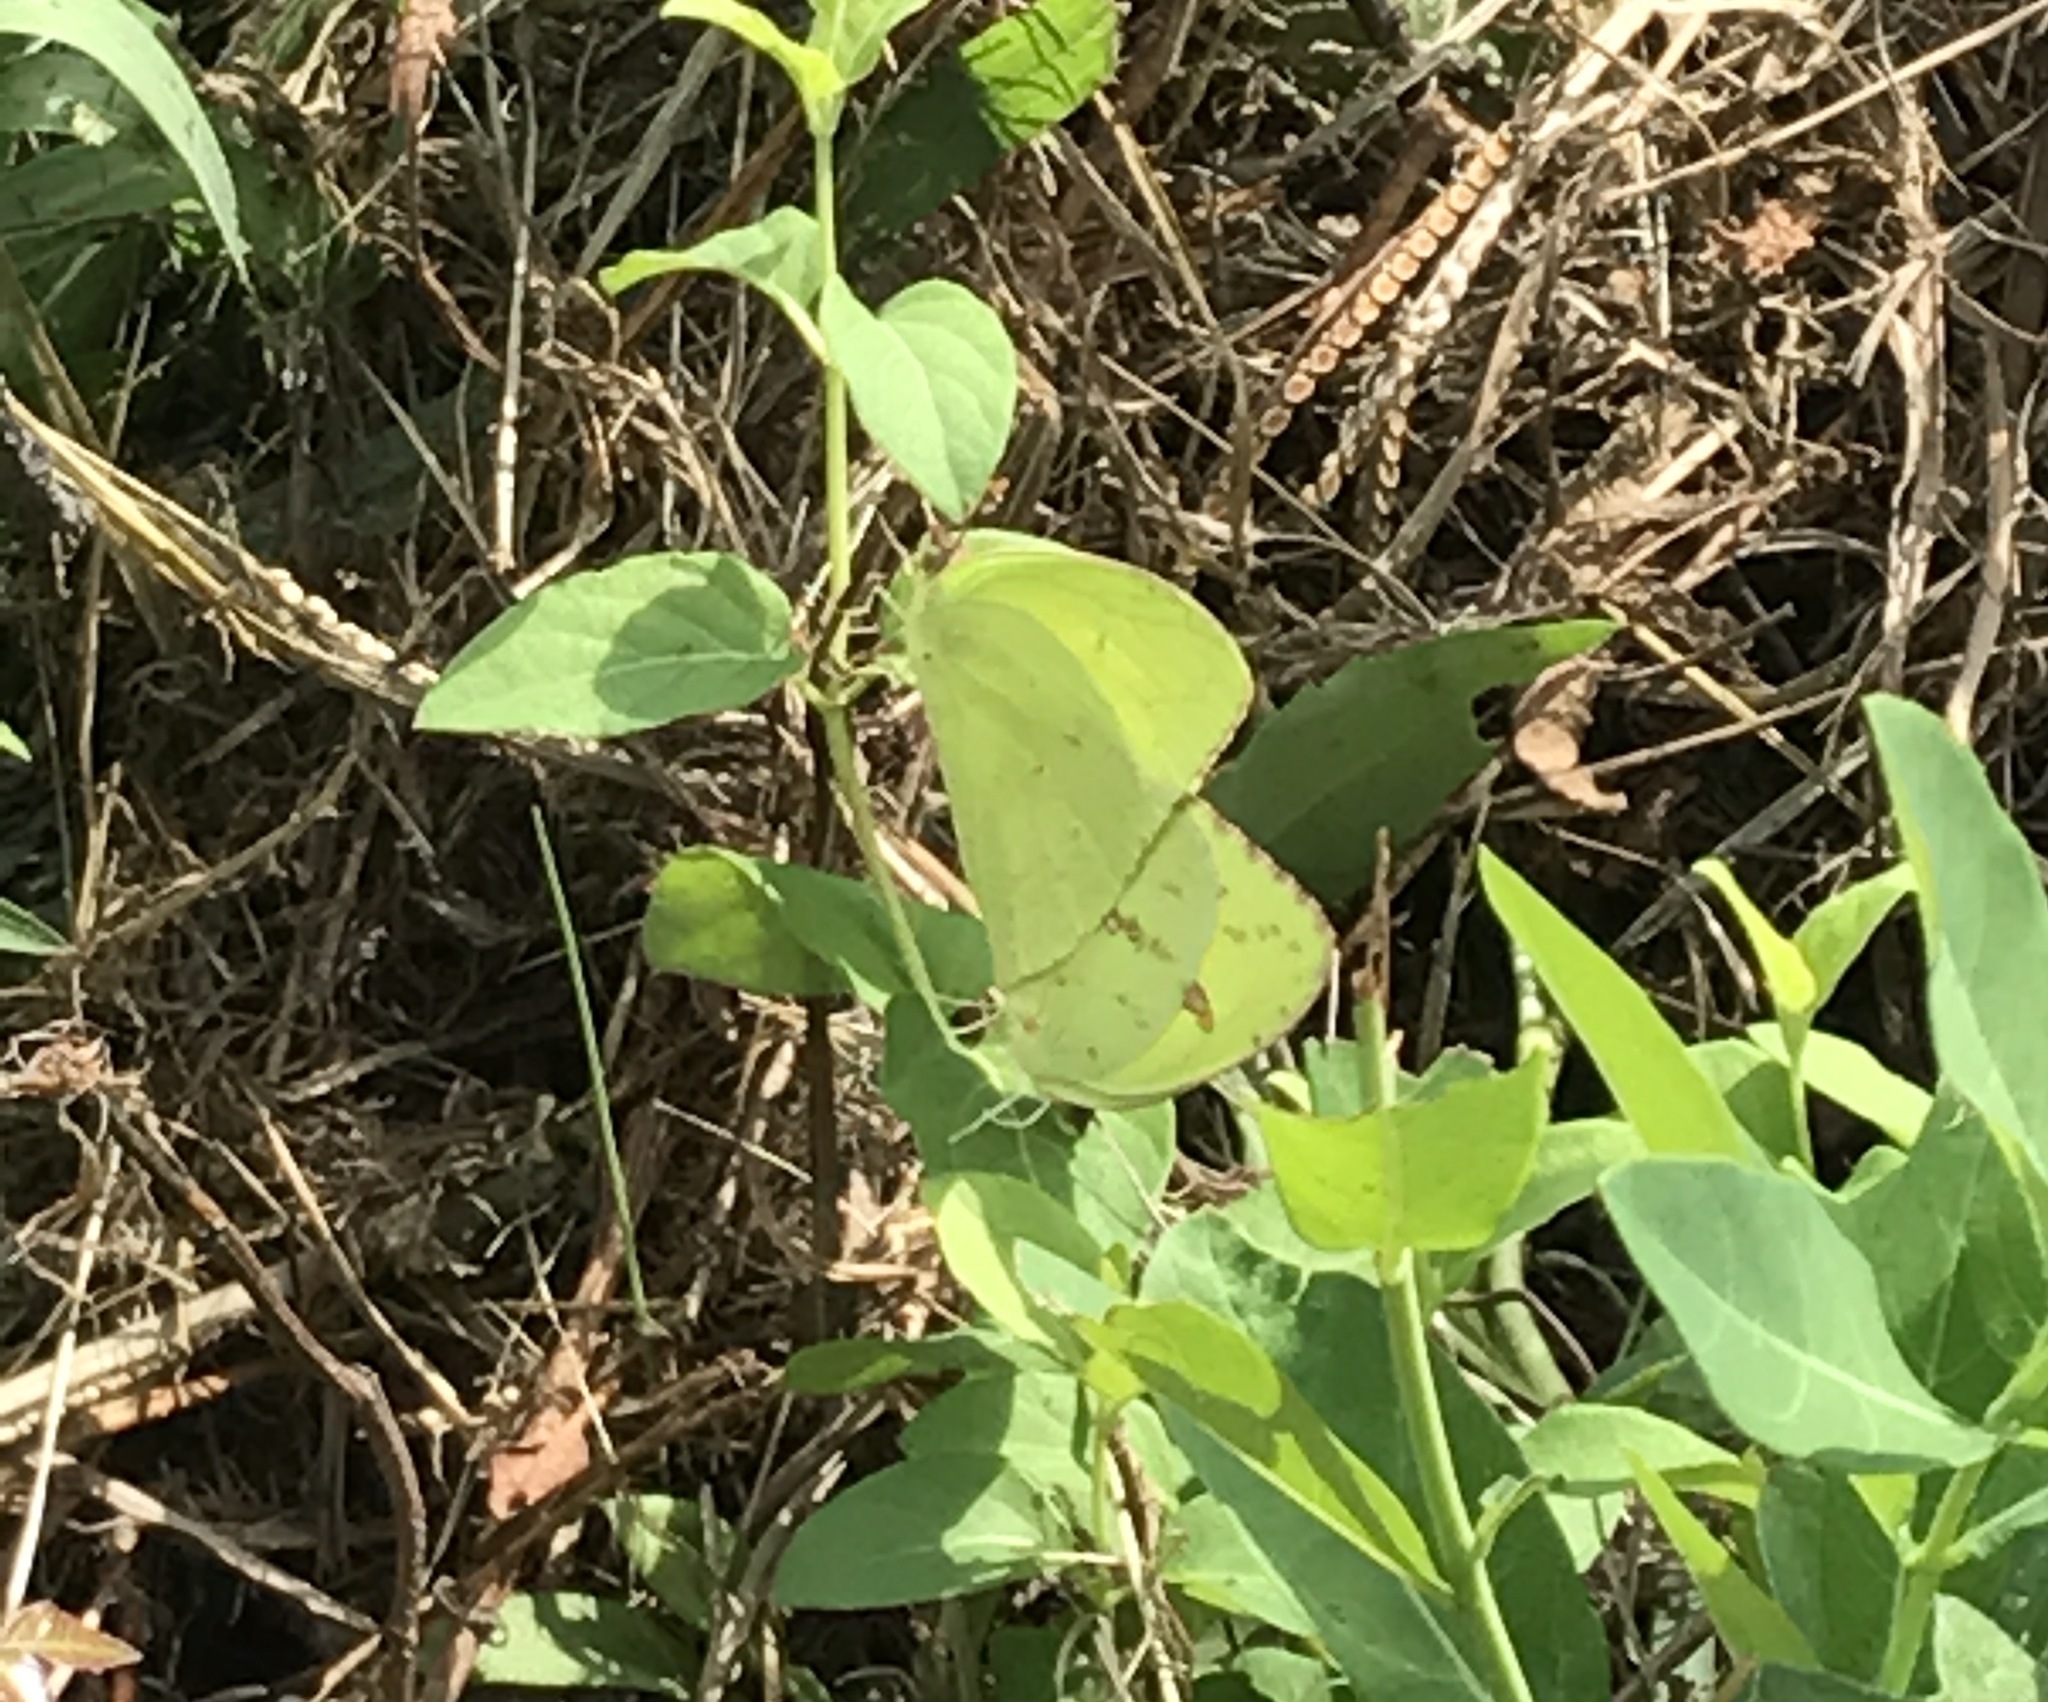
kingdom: Animalia
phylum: Arthropoda
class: Insecta
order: Lepidoptera
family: Pieridae
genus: Phoebis
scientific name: Phoebis sennae
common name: Cloudless sulphur
